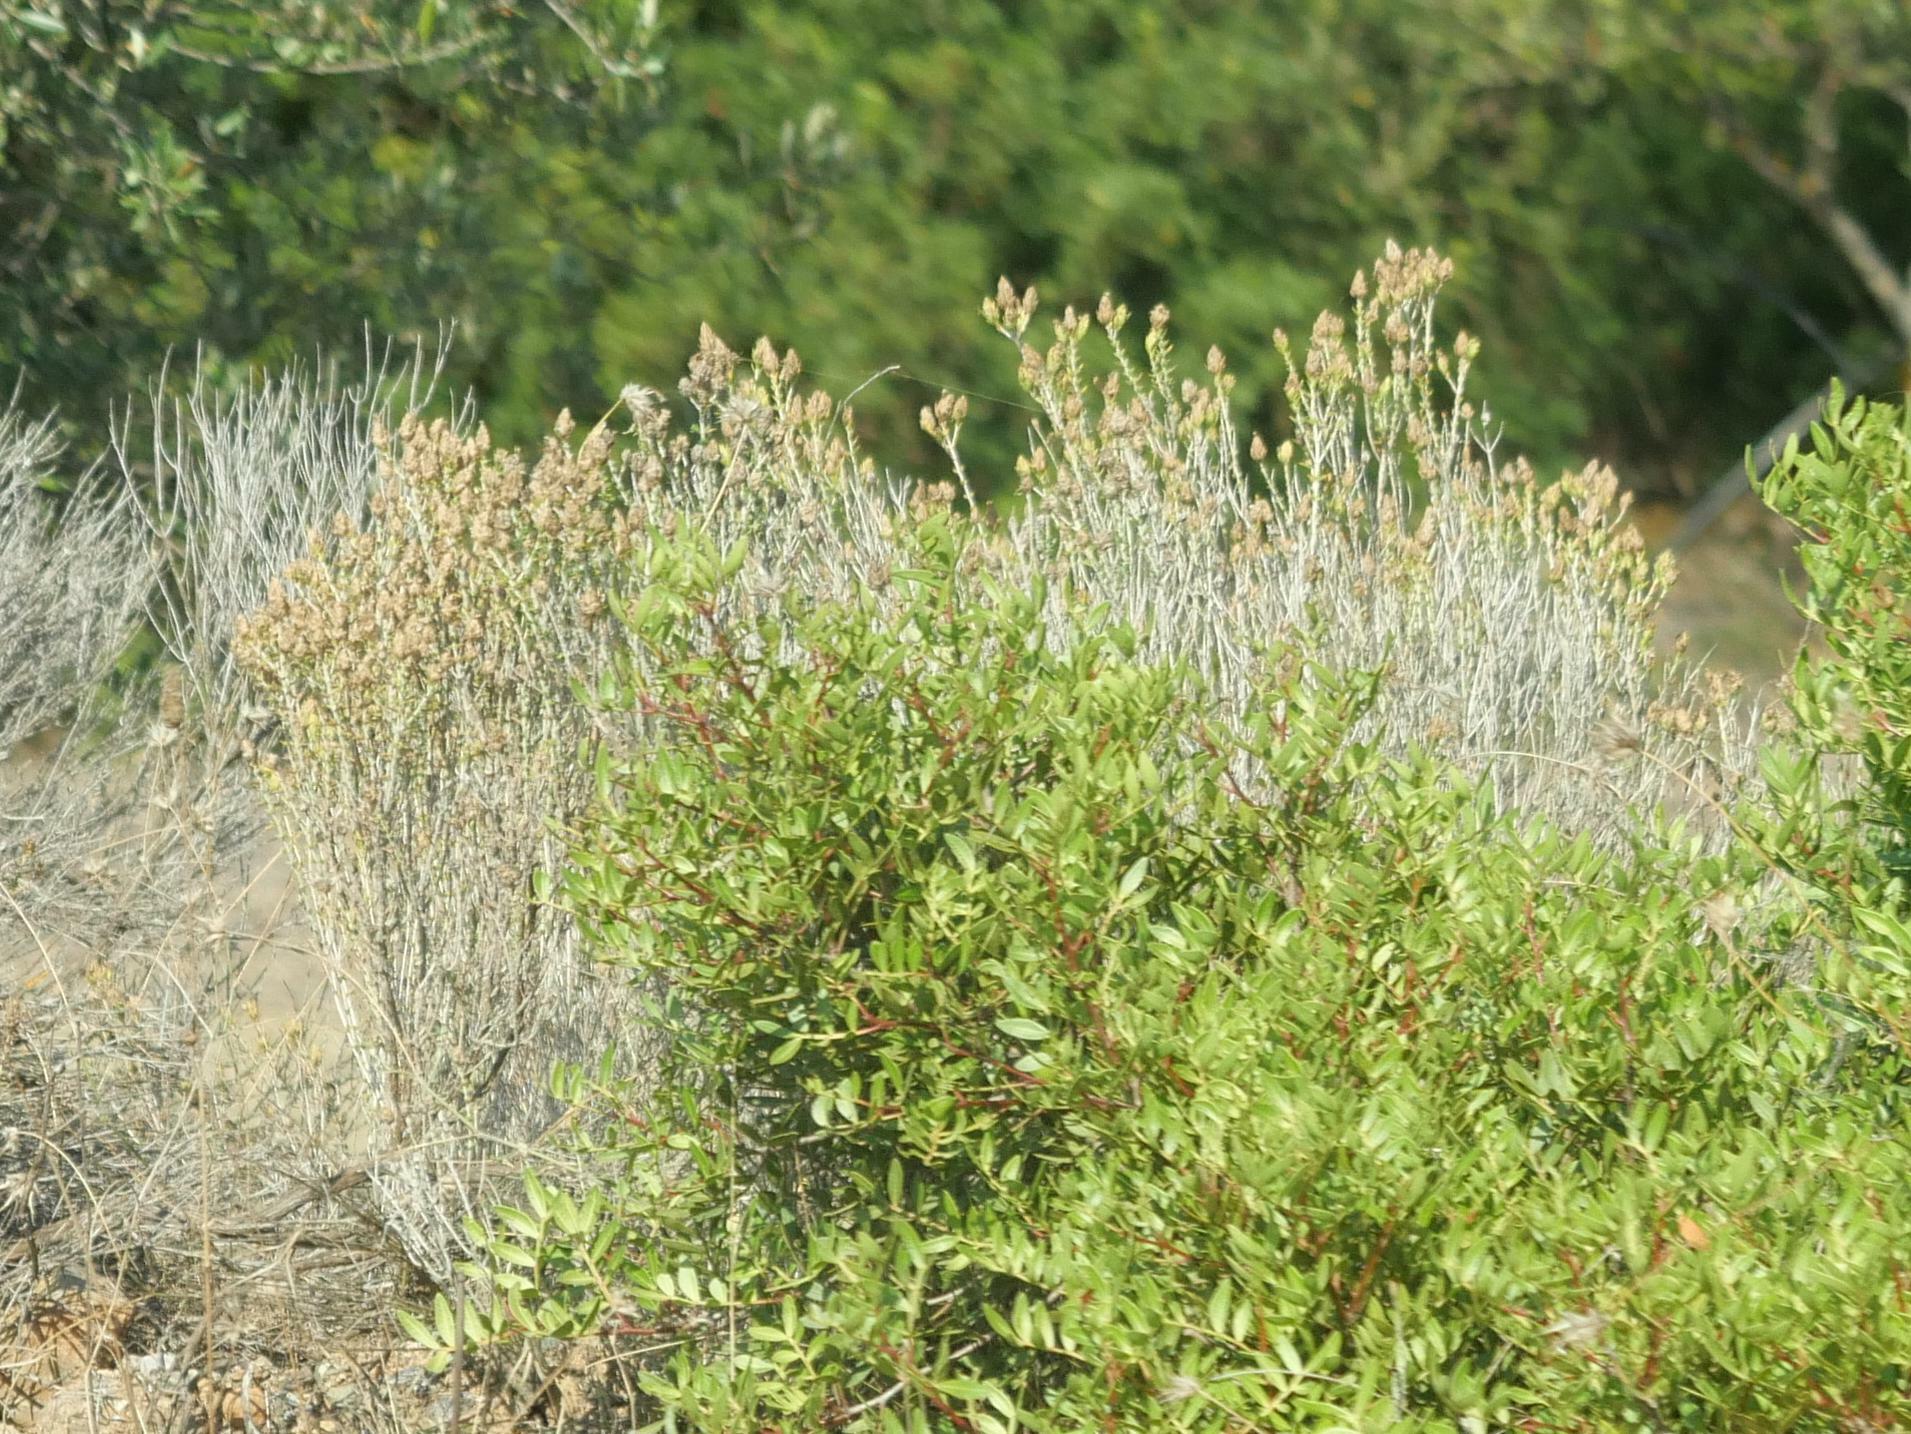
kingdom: Plantae
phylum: Tracheophyta
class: Magnoliopsida
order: Sapindales
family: Anacardiaceae
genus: Pistacia
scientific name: Pistacia lentiscus
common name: Lentisk
